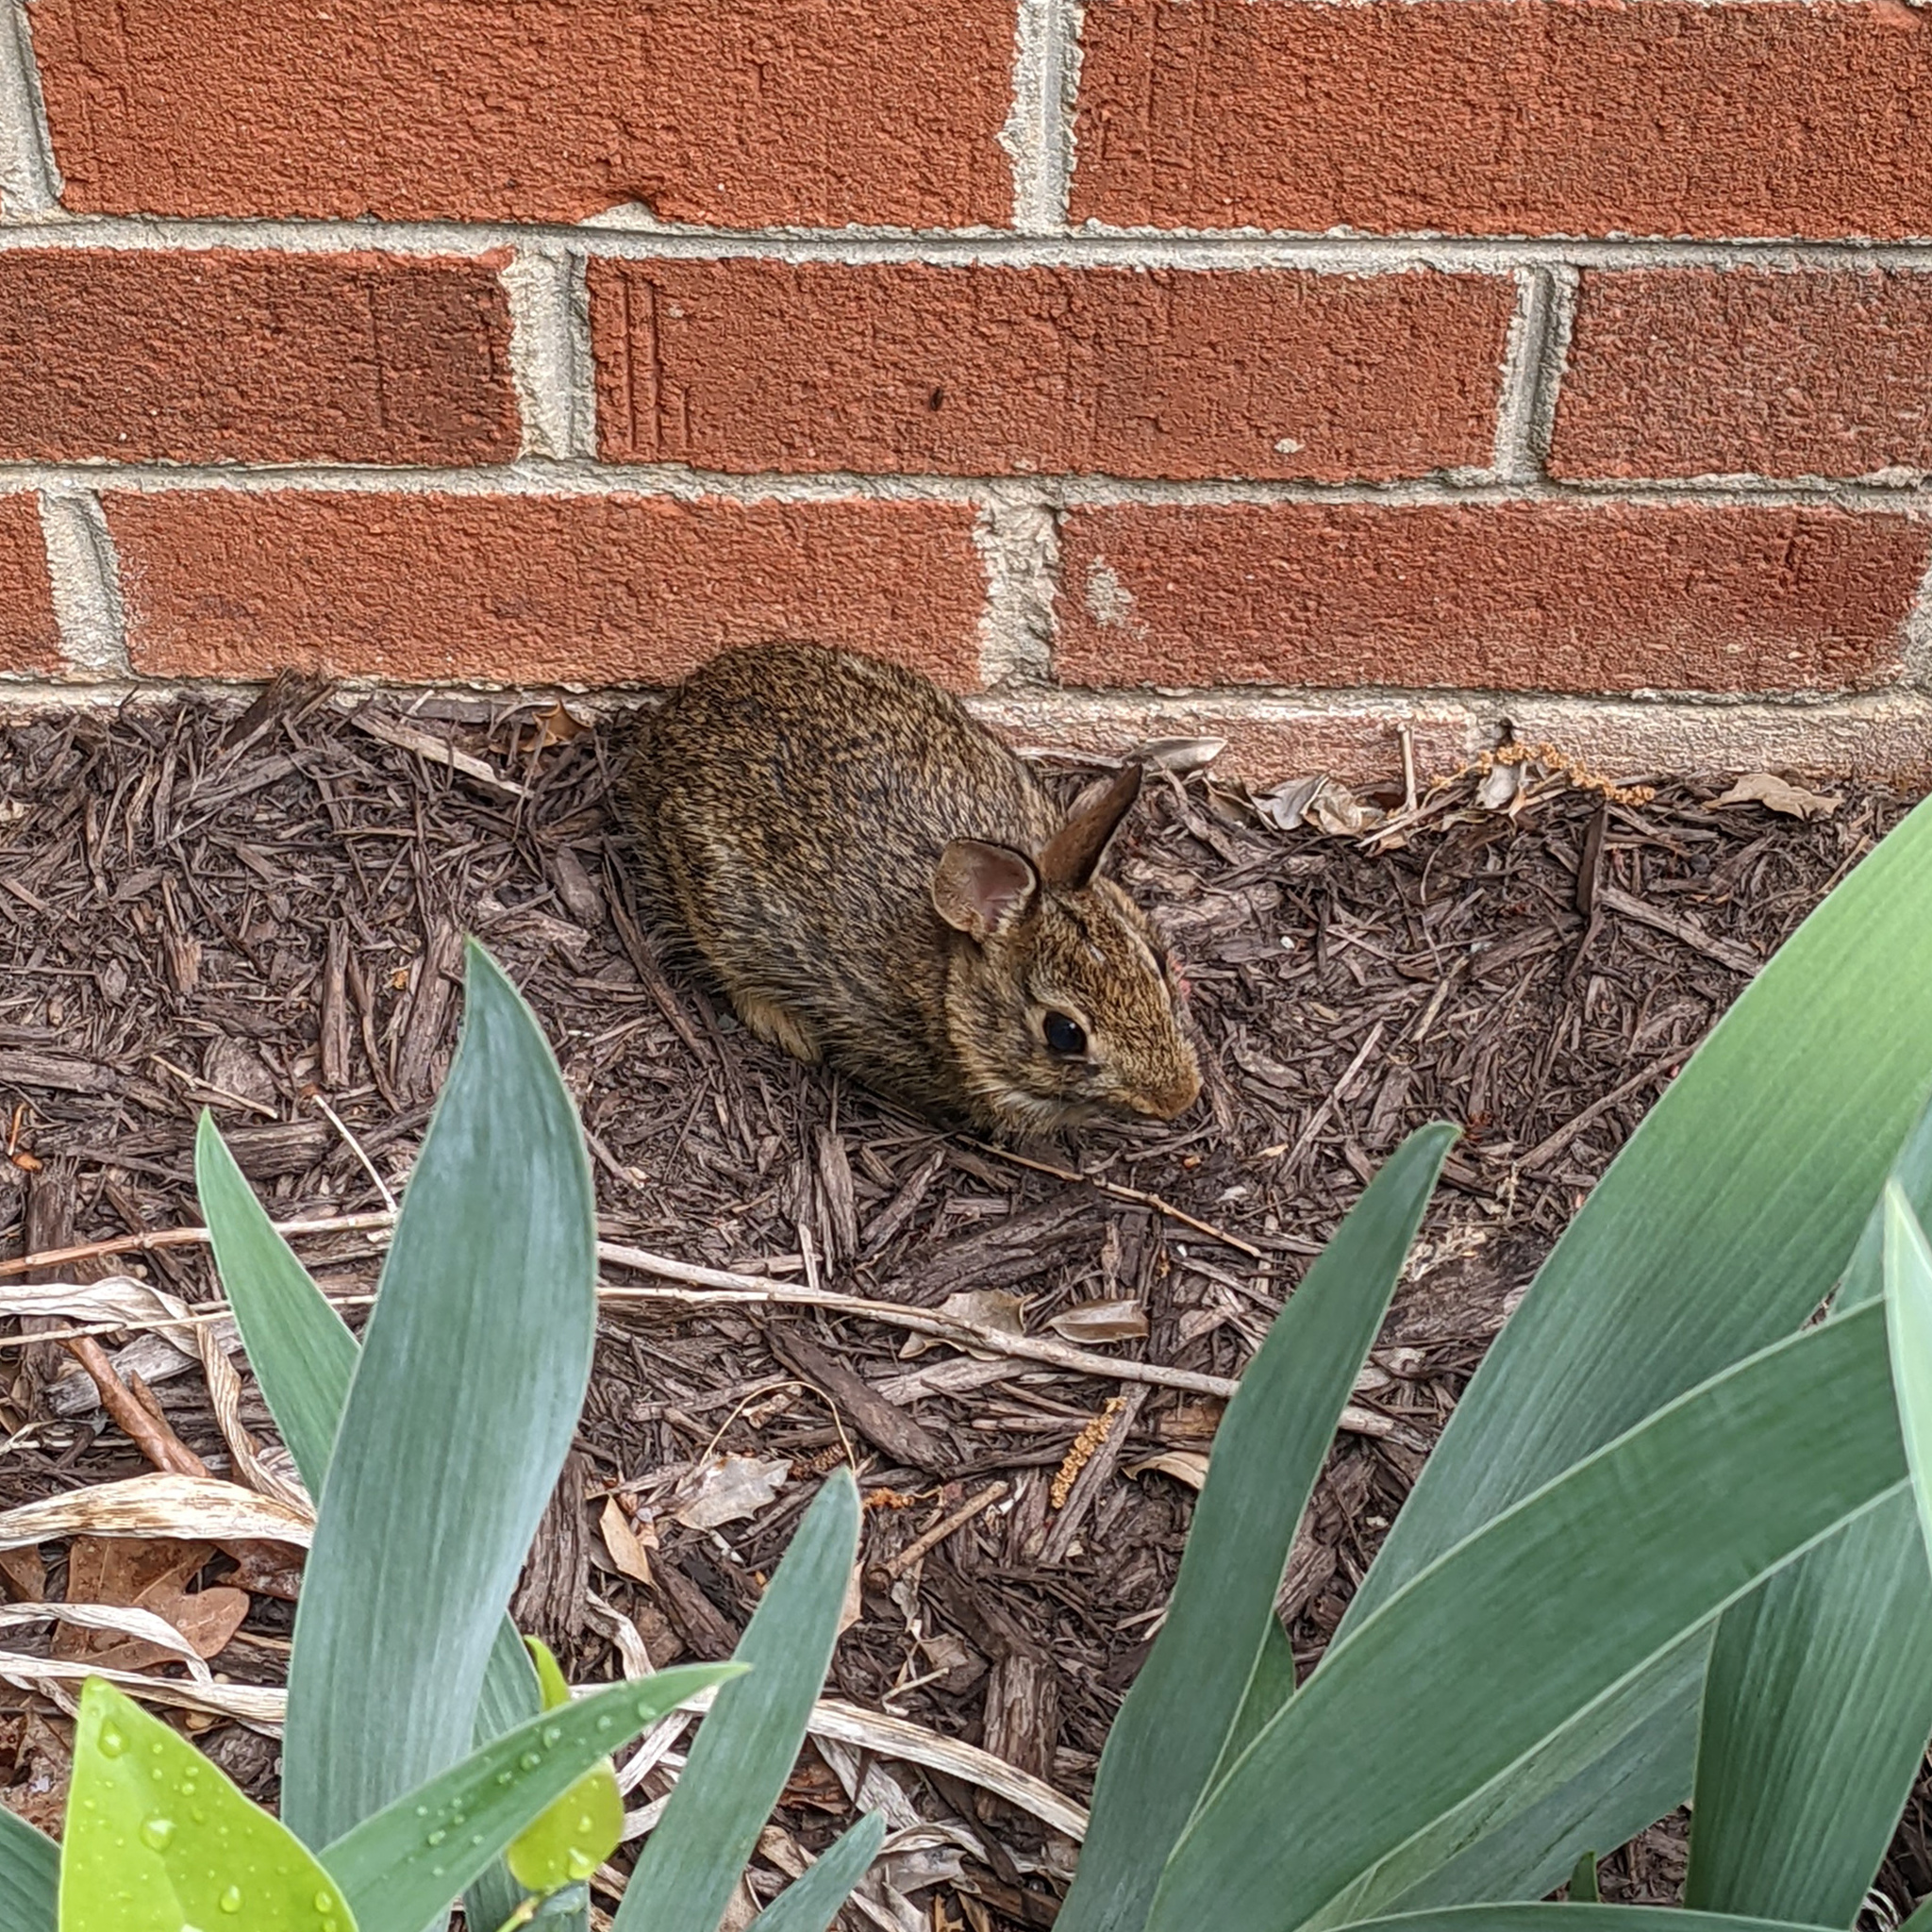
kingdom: Animalia
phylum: Chordata
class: Mammalia
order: Lagomorpha
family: Leporidae
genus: Sylvilagus
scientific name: Sylvilagus floridanus
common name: Eastern cottontail
